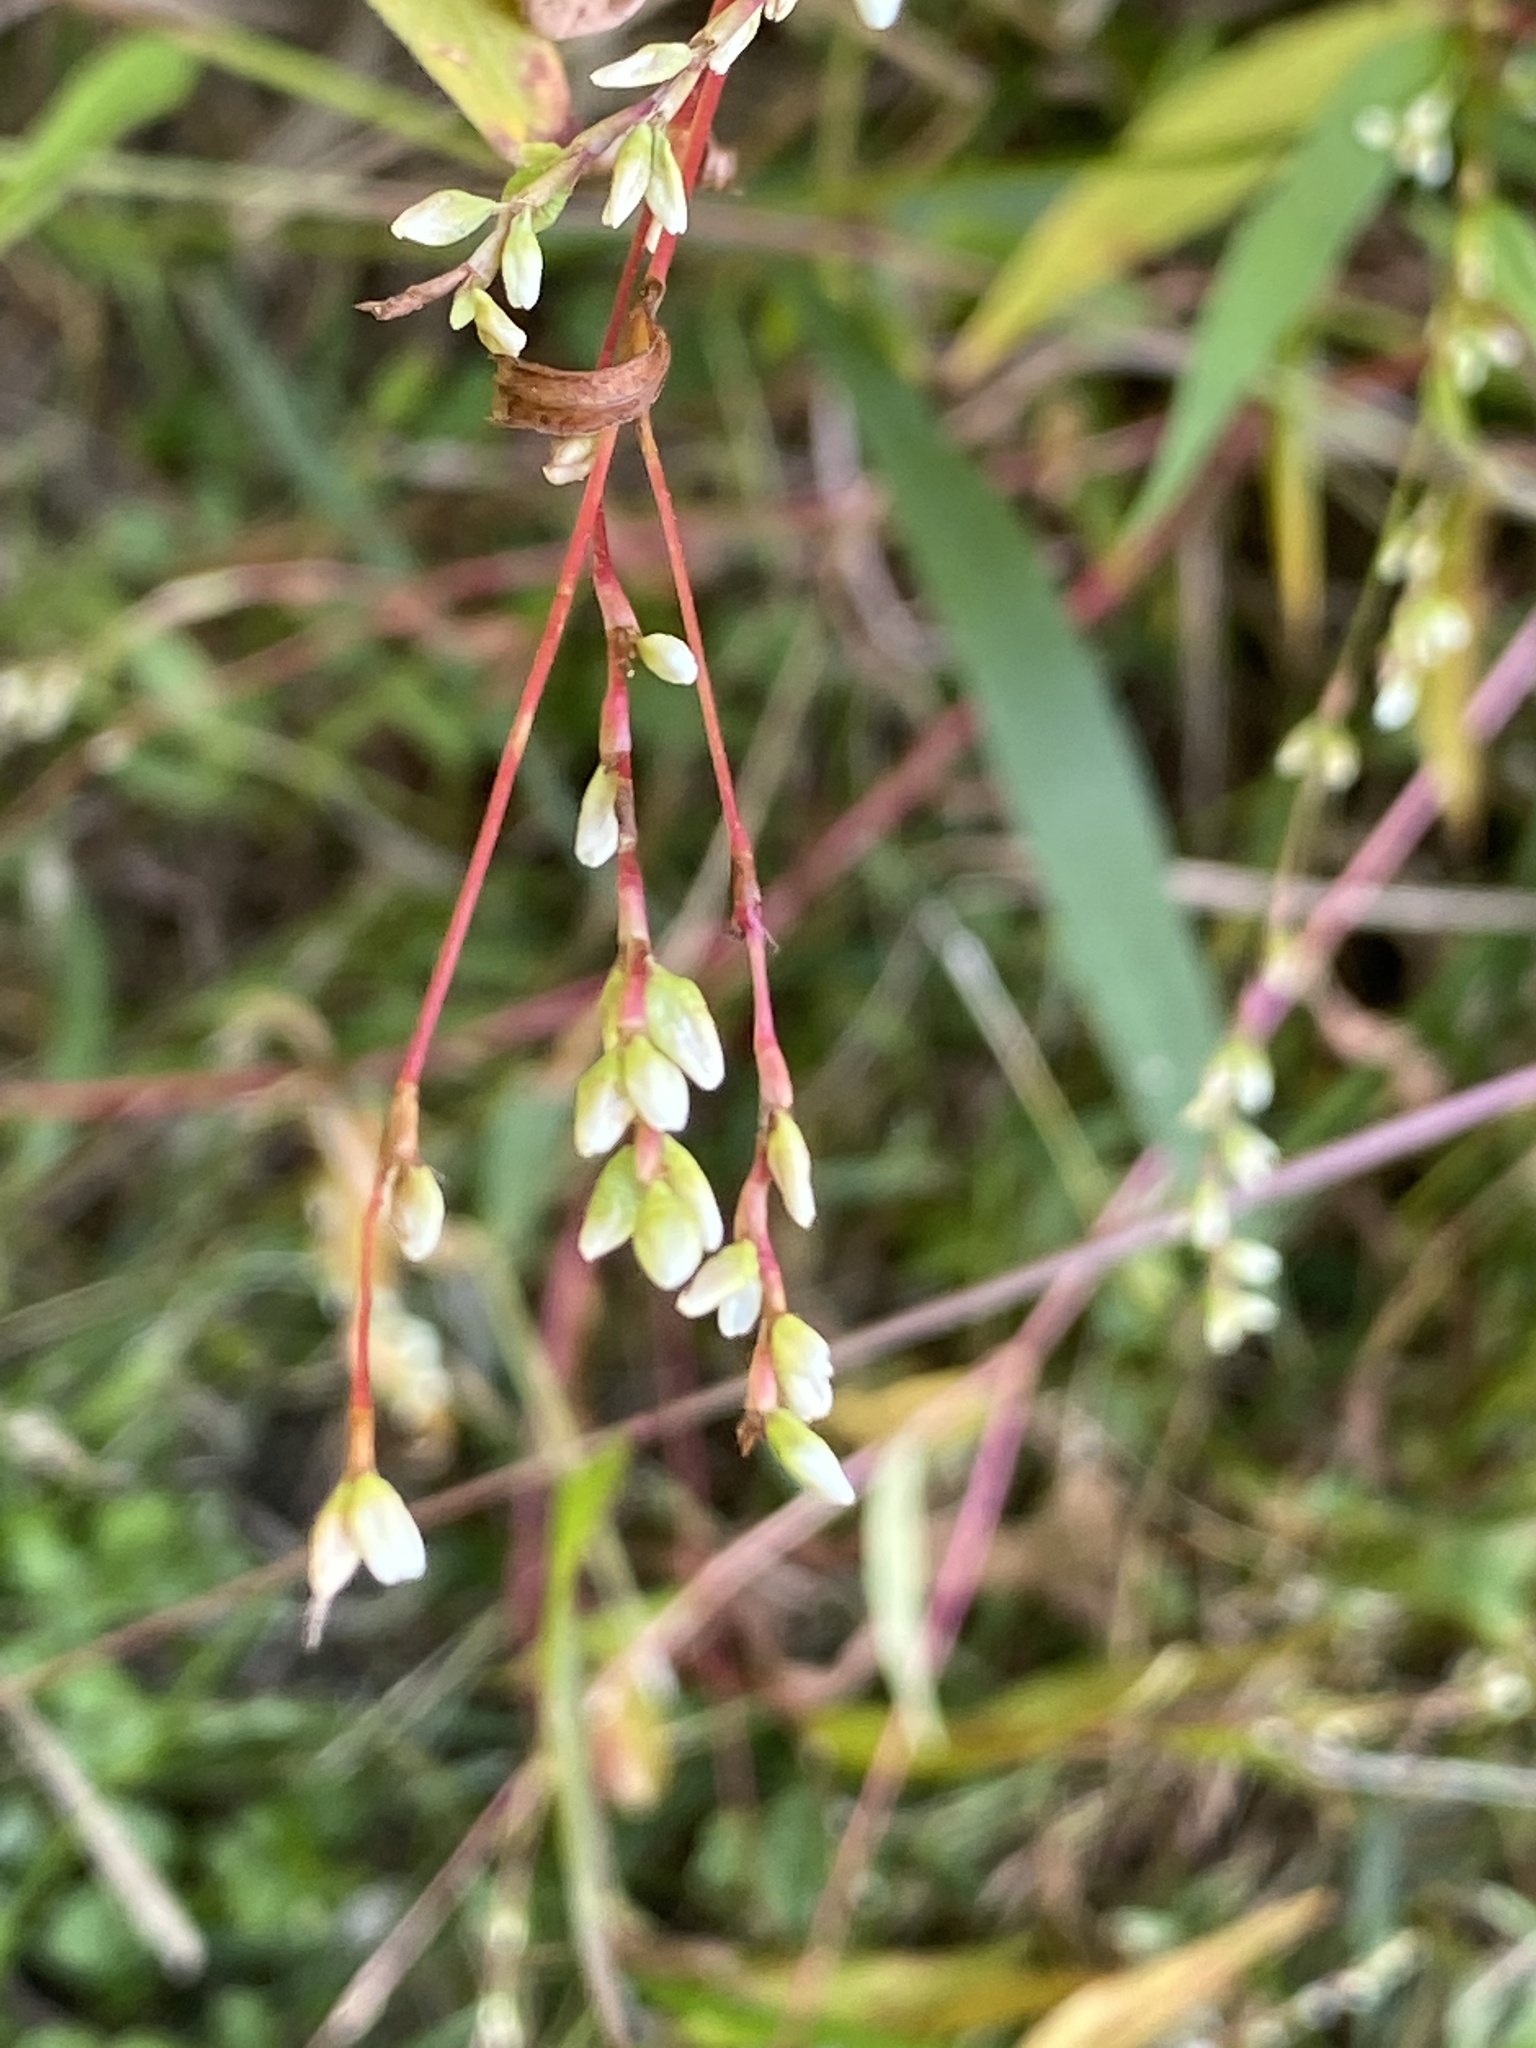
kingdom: Plantae
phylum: Tracheophyta
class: Magnoliopsida
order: Caryophyllales
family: Polygonaceae
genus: Persicaria
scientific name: Persicaria punctata
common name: Dotted smartweed
